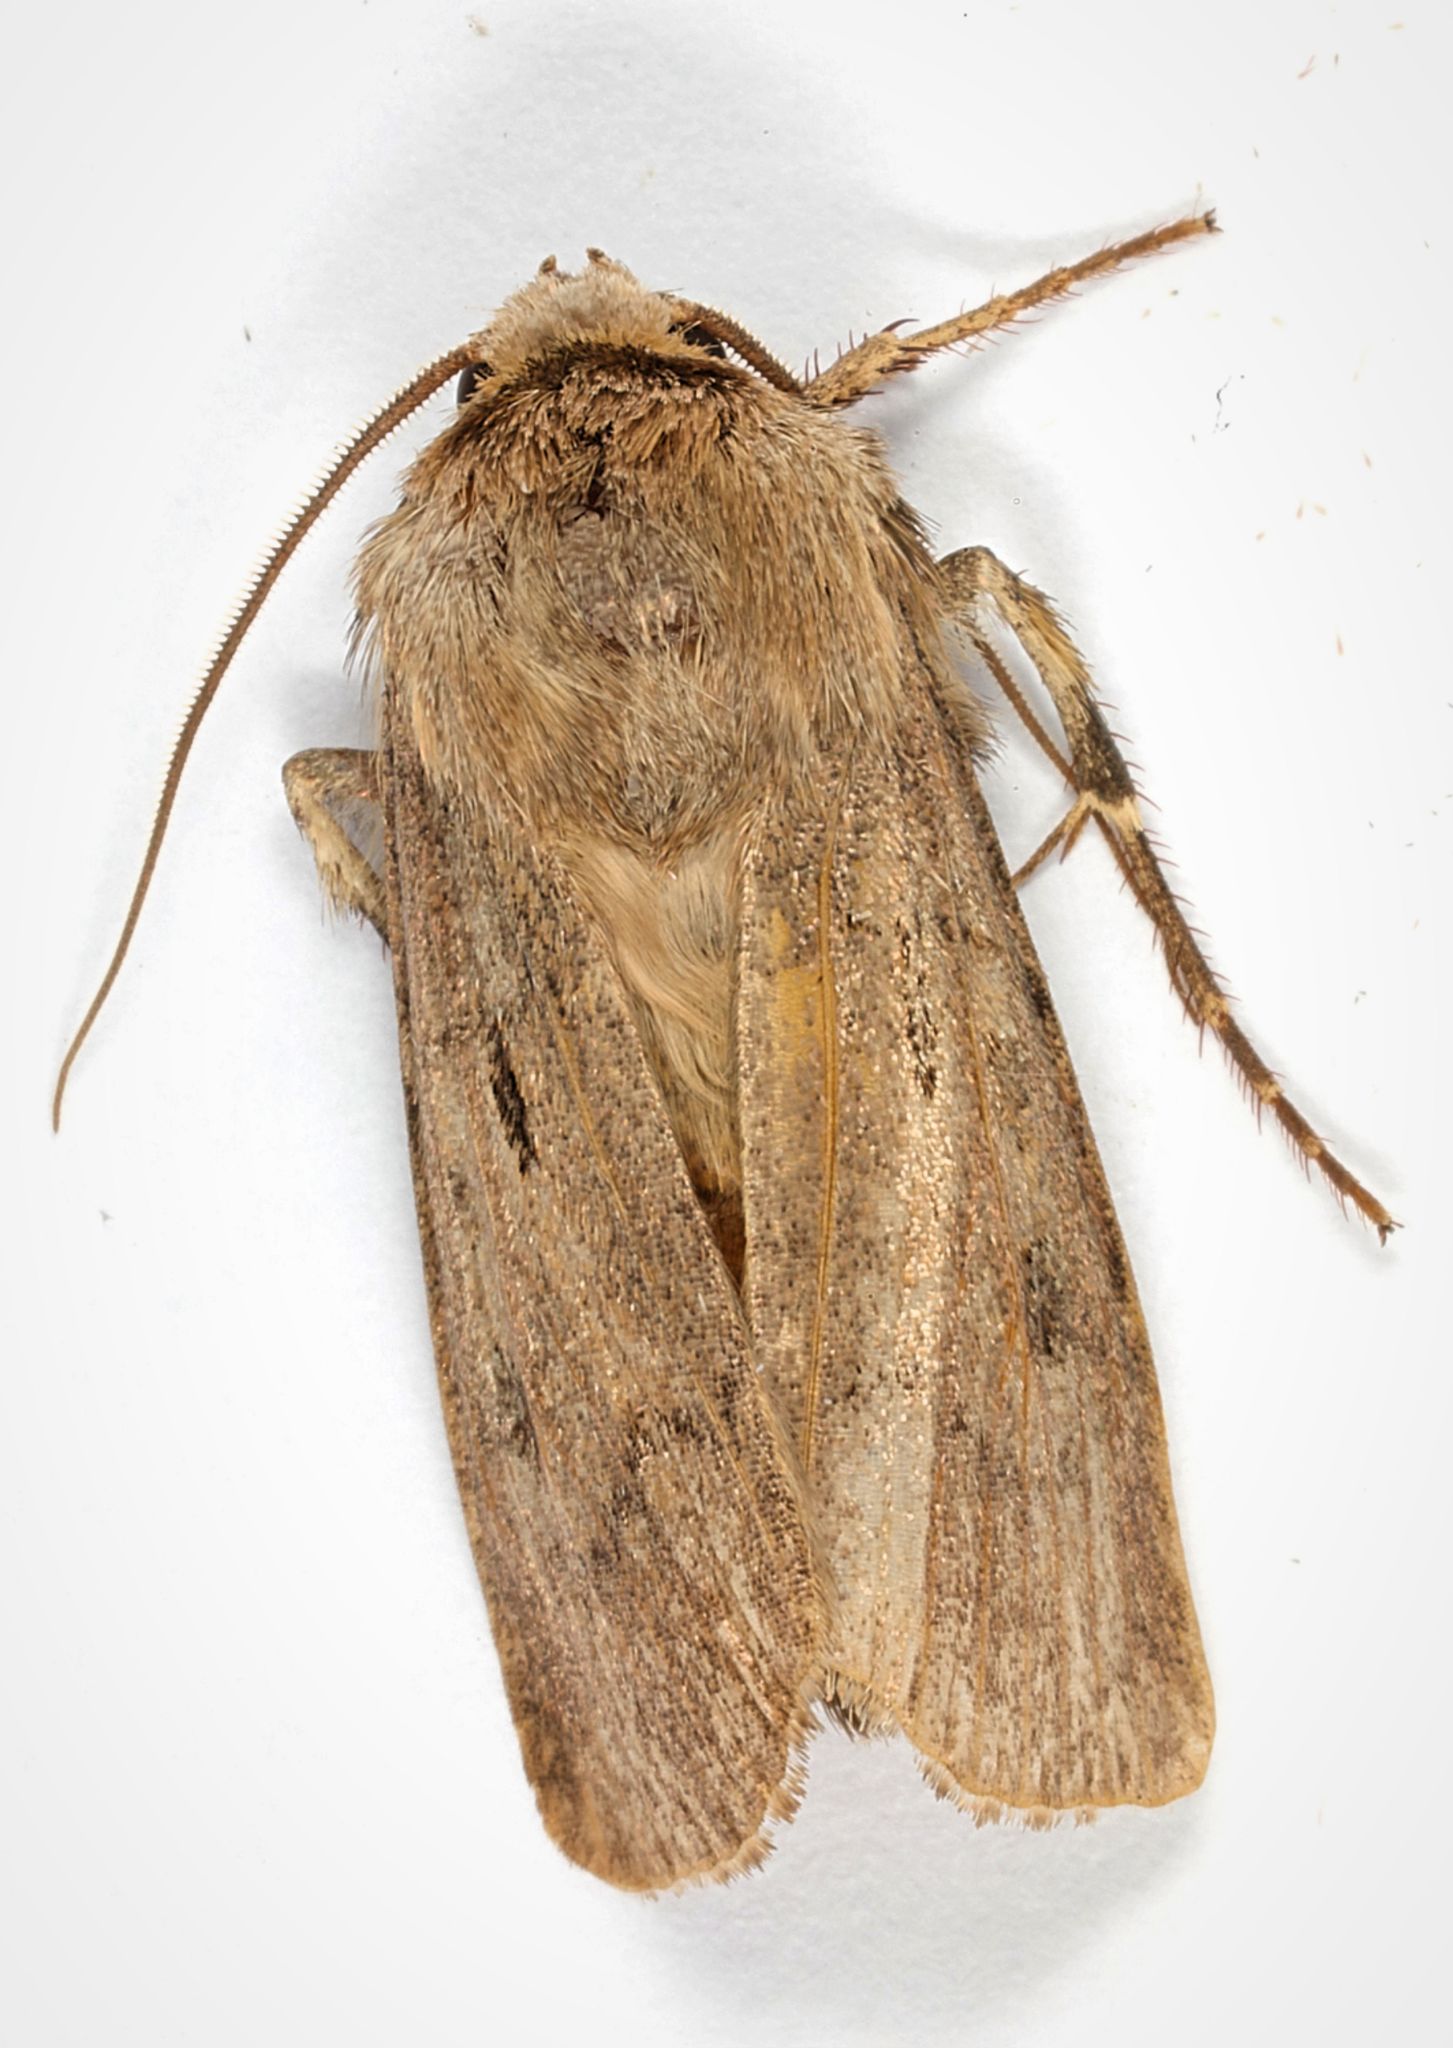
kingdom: Animalia
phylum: Arthropoda
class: Insecta
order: Lepidoptera
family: Noctuidae
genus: Agrotis
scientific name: Agrotis exclamationis
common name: Heart and dart
